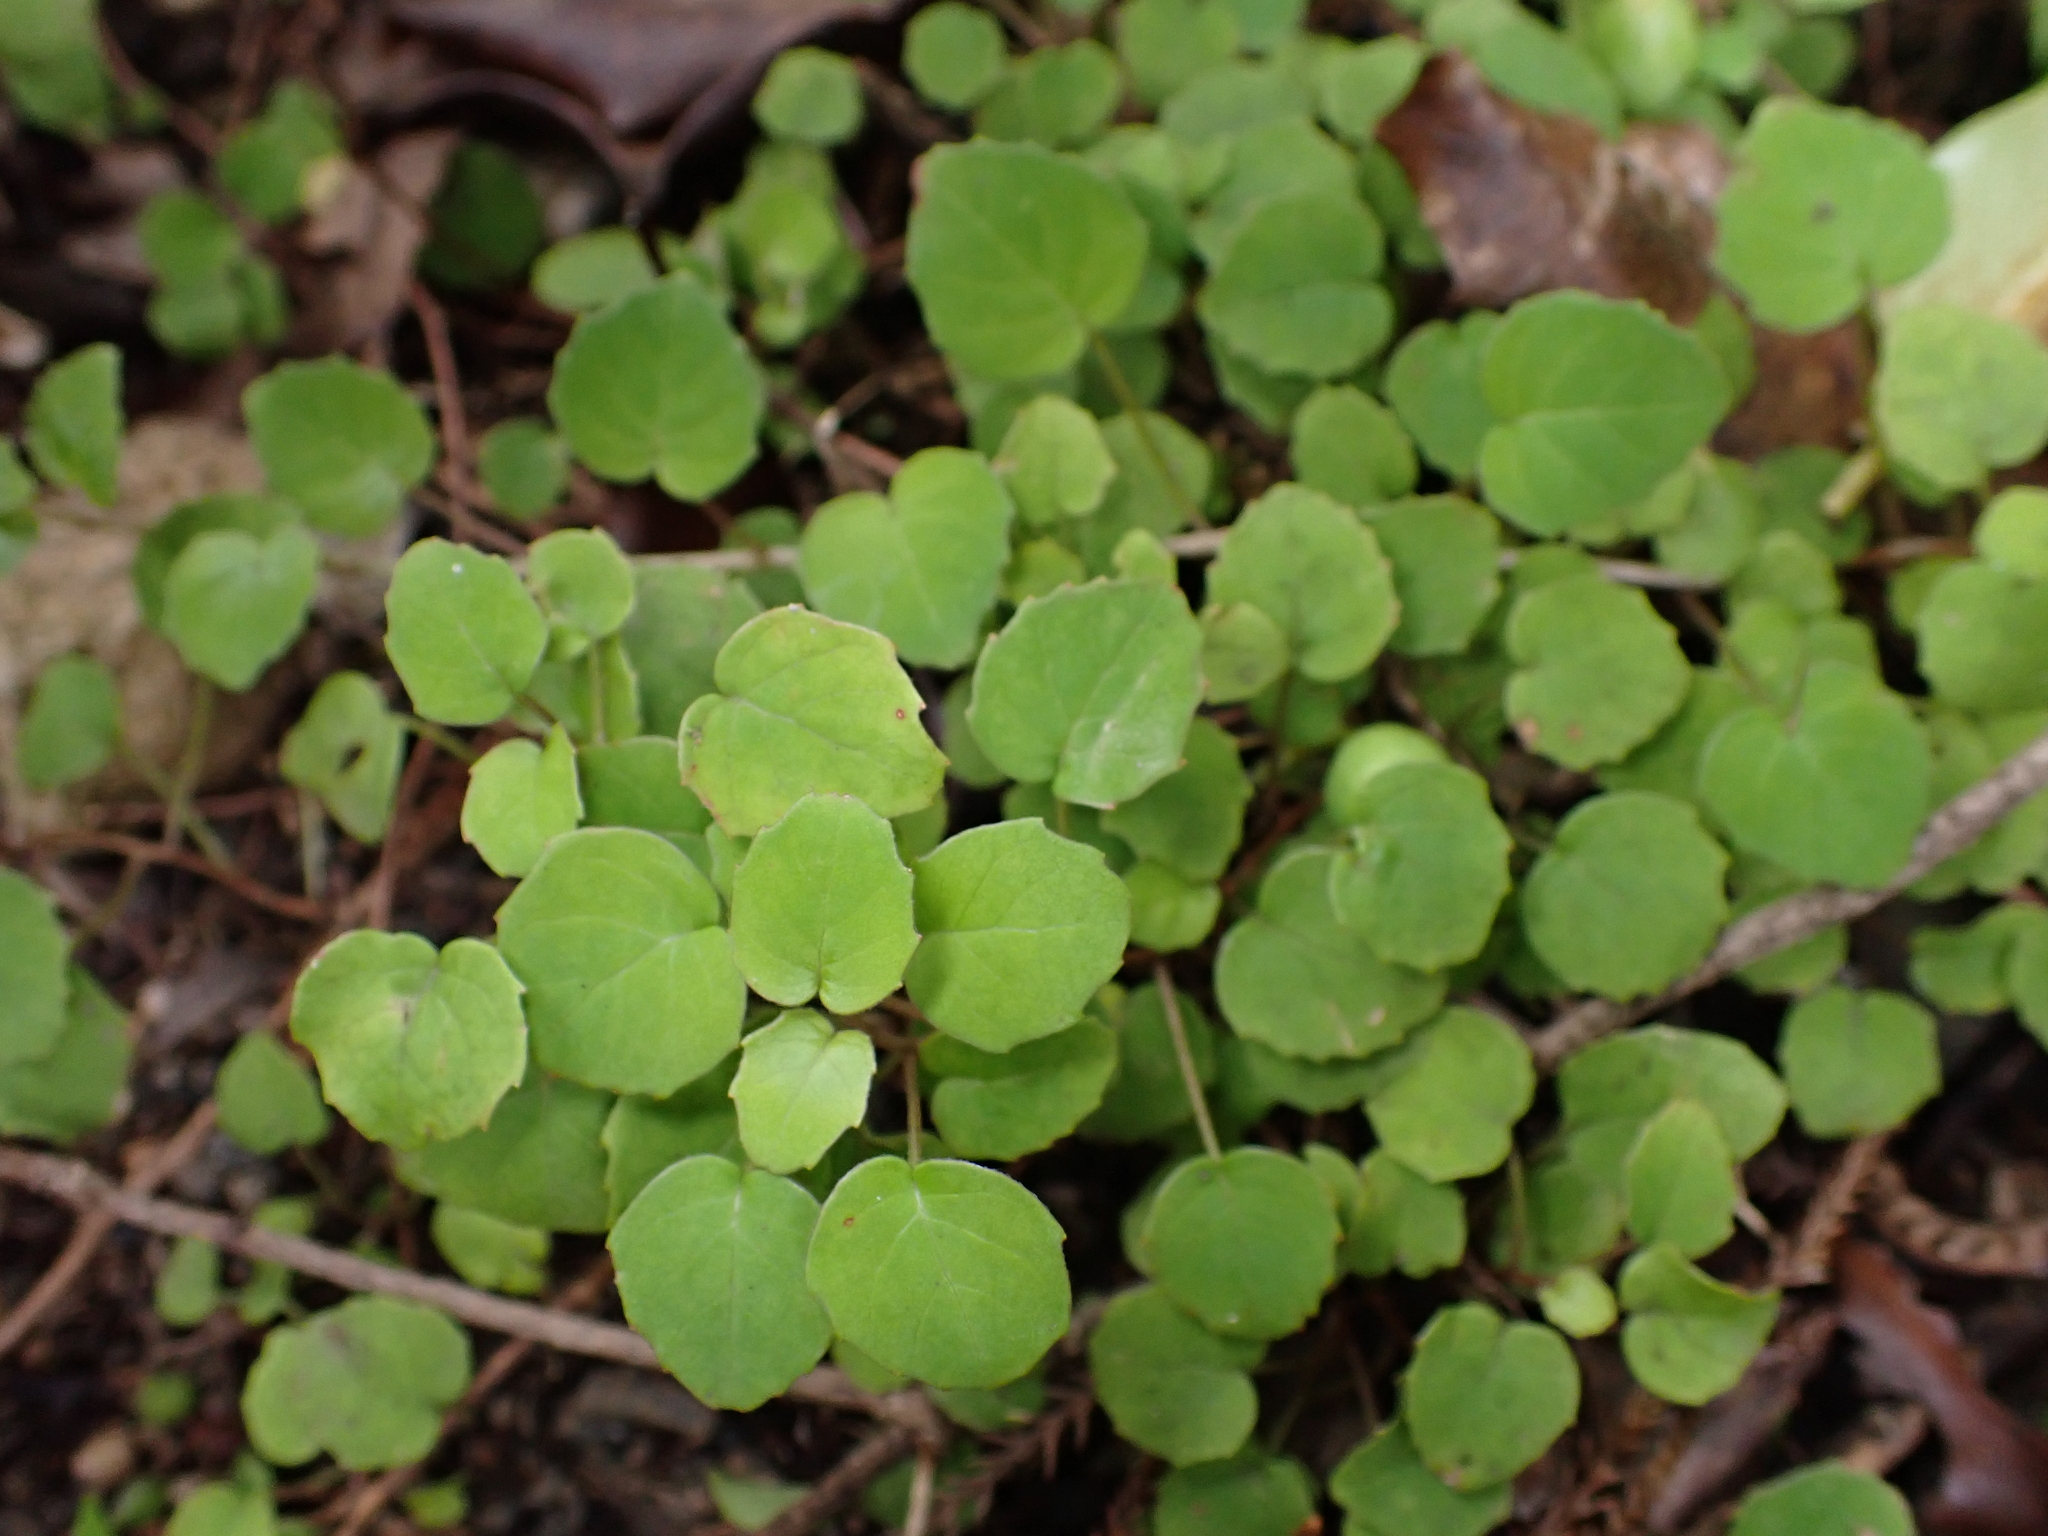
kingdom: Plantae
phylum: Tracheophyta
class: Magnoliopsida
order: Myrtales
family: Onagraceae
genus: Fuchsia
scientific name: Fuchsia procumbens
